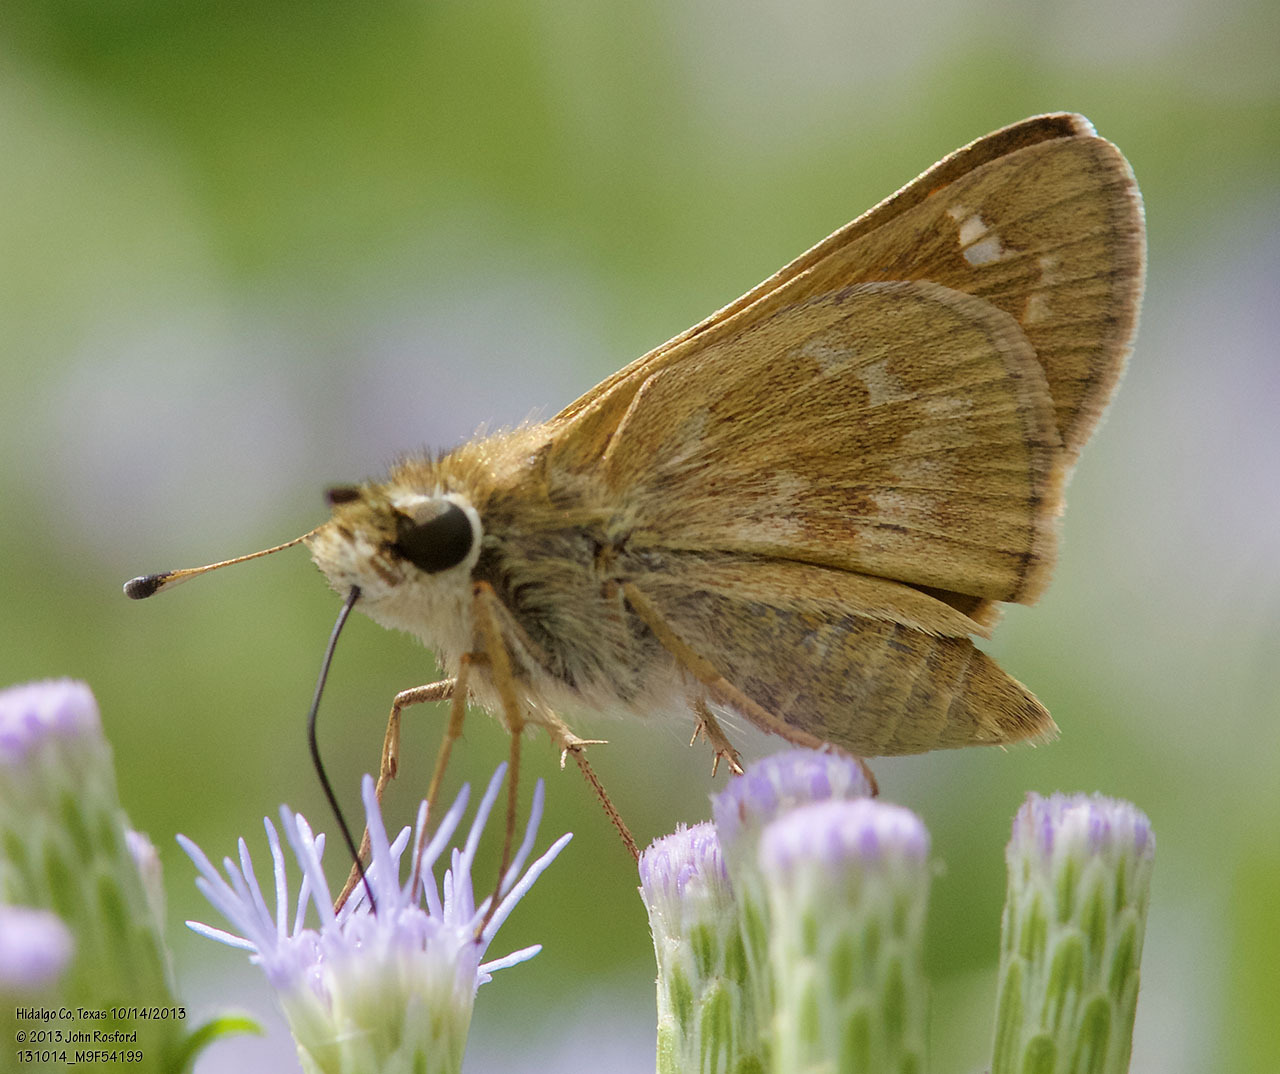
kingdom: Animalia
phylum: Arthropoda
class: Insecta
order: Lepidoptera
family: Hesperiidae
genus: Atalopedes
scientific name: Atalopedes
